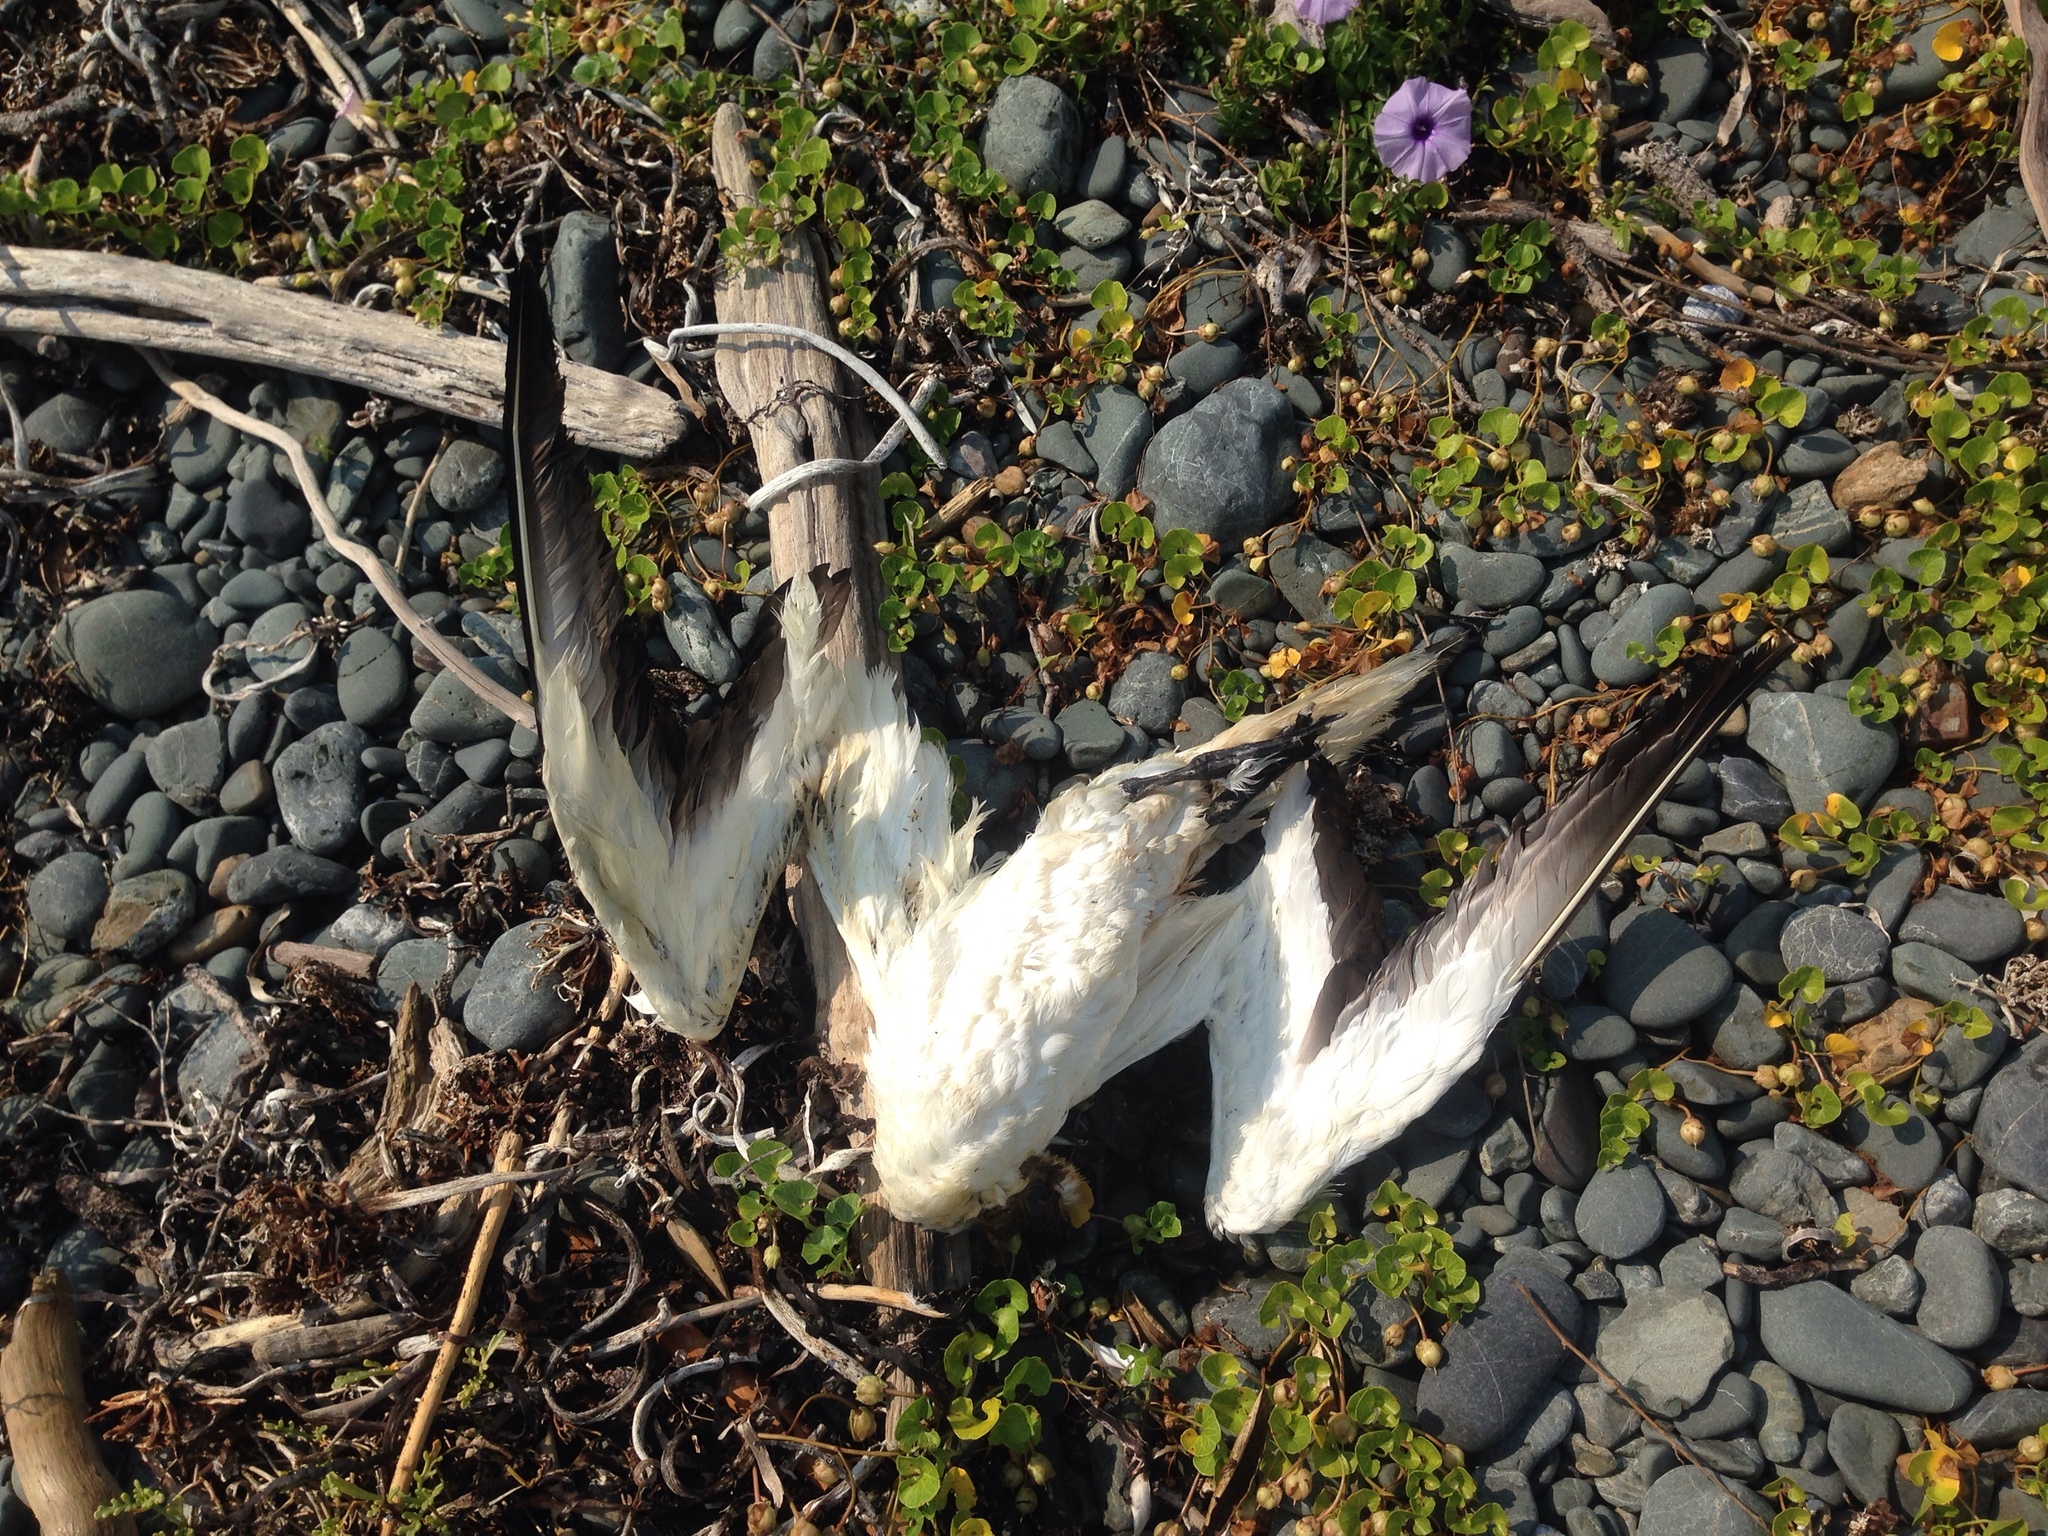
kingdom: Animalia
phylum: Chordata
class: Aves
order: Suliformes
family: Sulidae
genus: Morus
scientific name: Morus serrator
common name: Australasian gannet
